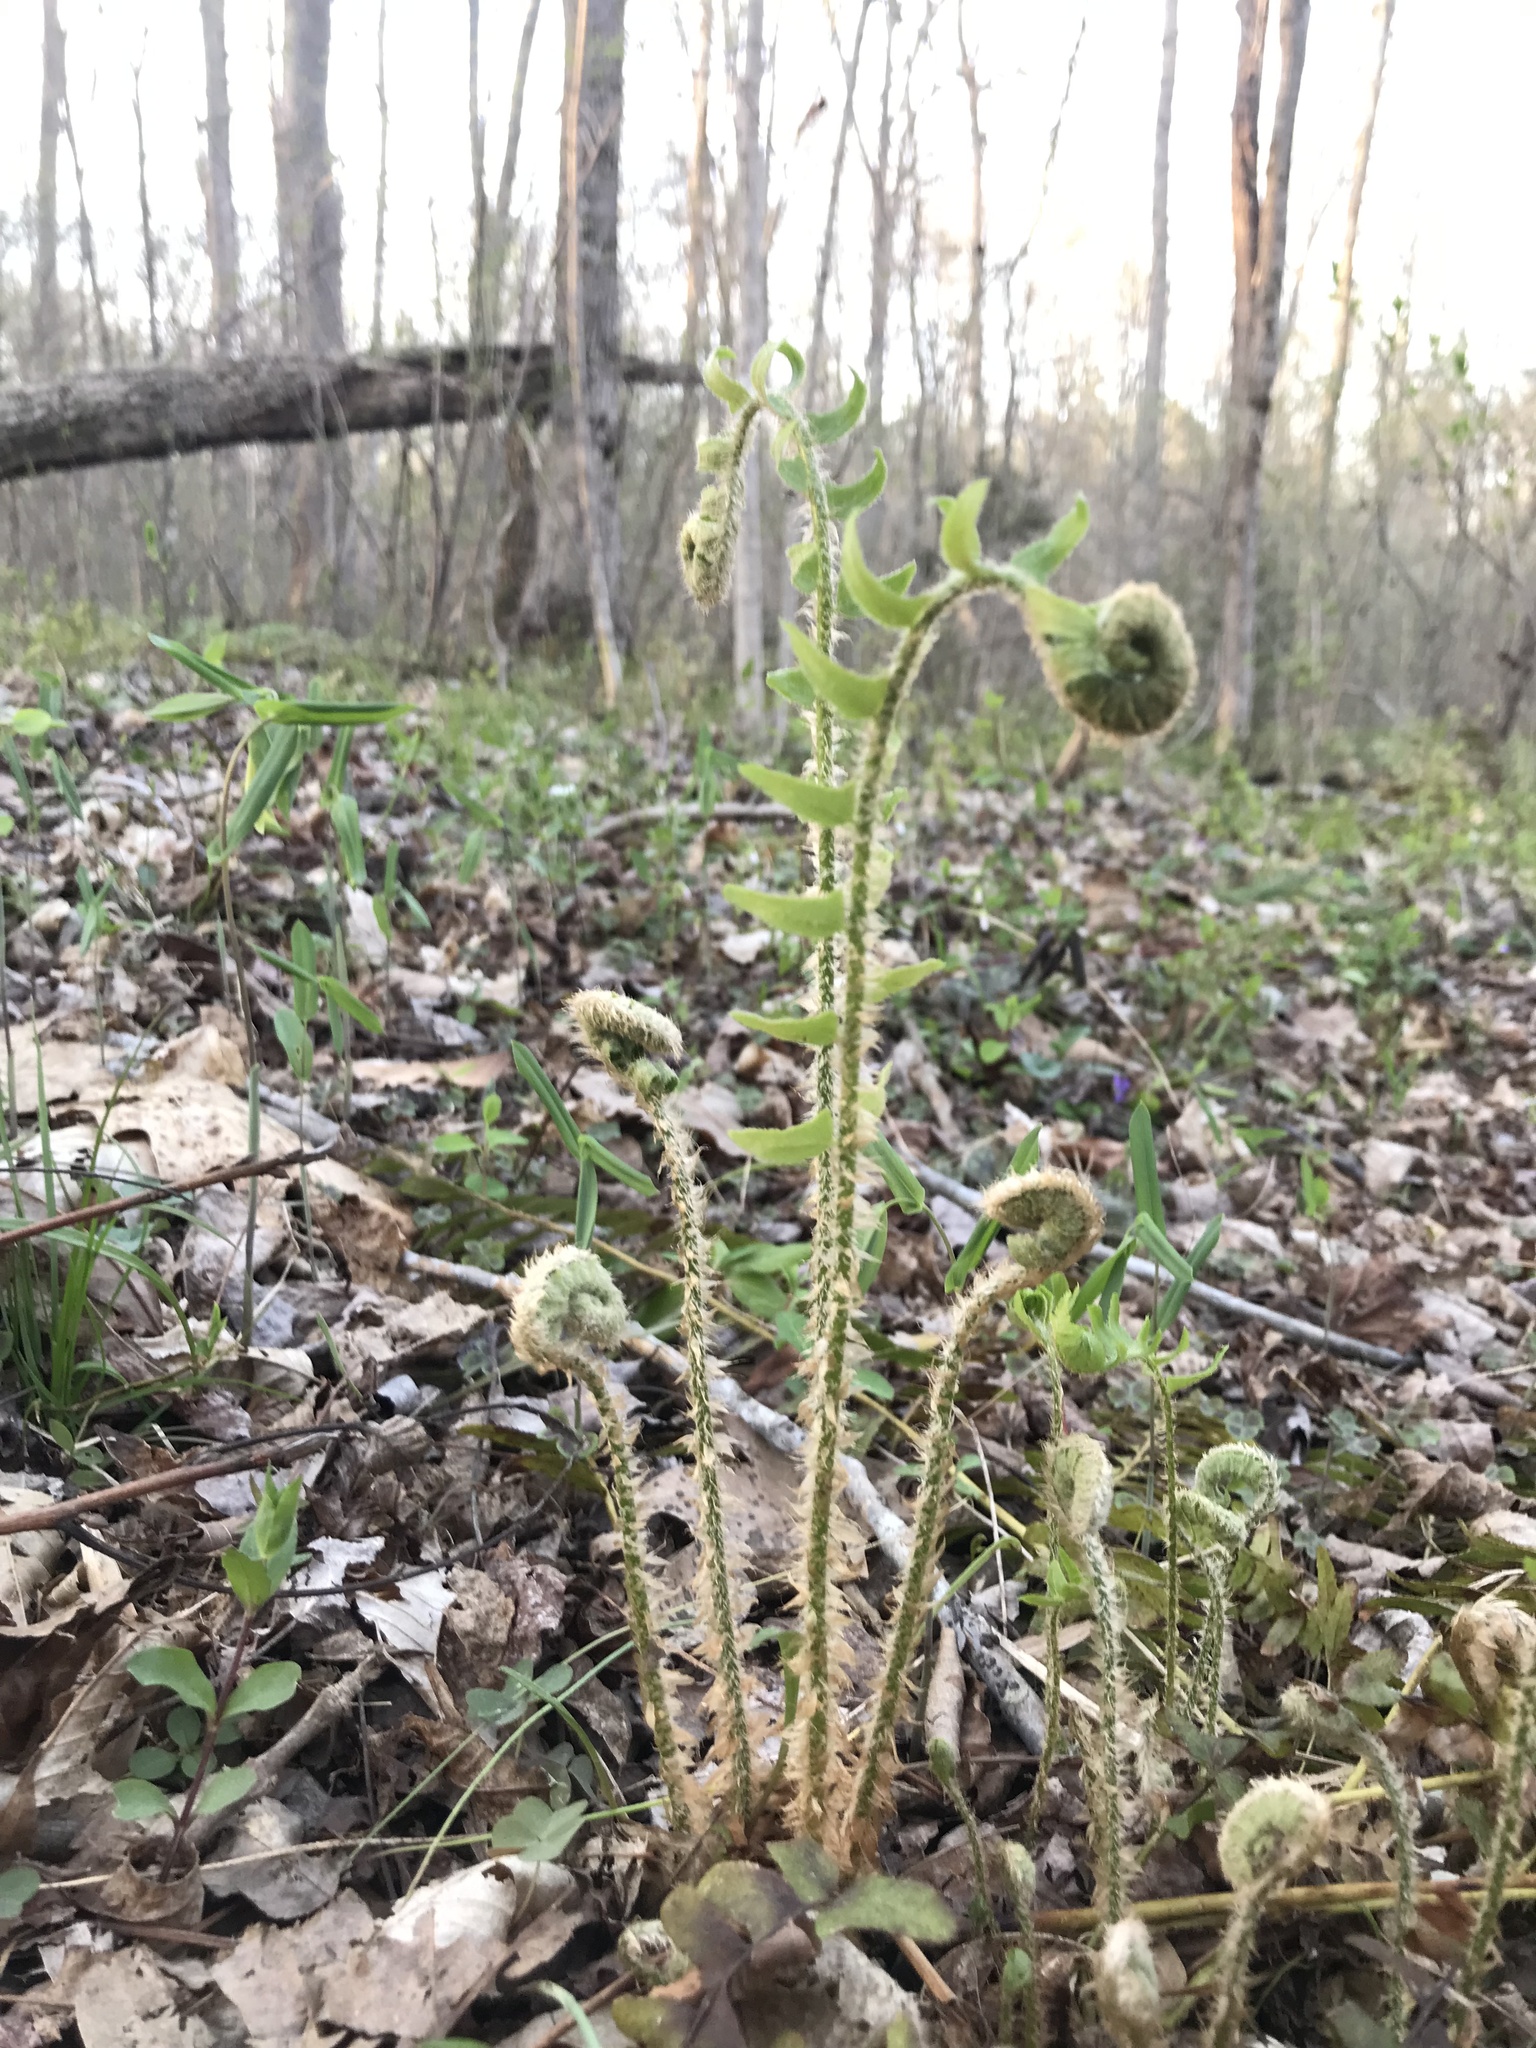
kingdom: Plantae
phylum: Tracheophyta
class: Polypodiopsida
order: Polypodiales
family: Dryopteridaceae
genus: Polystichum
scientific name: Polystichum acrostichoides
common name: Christmas fern
